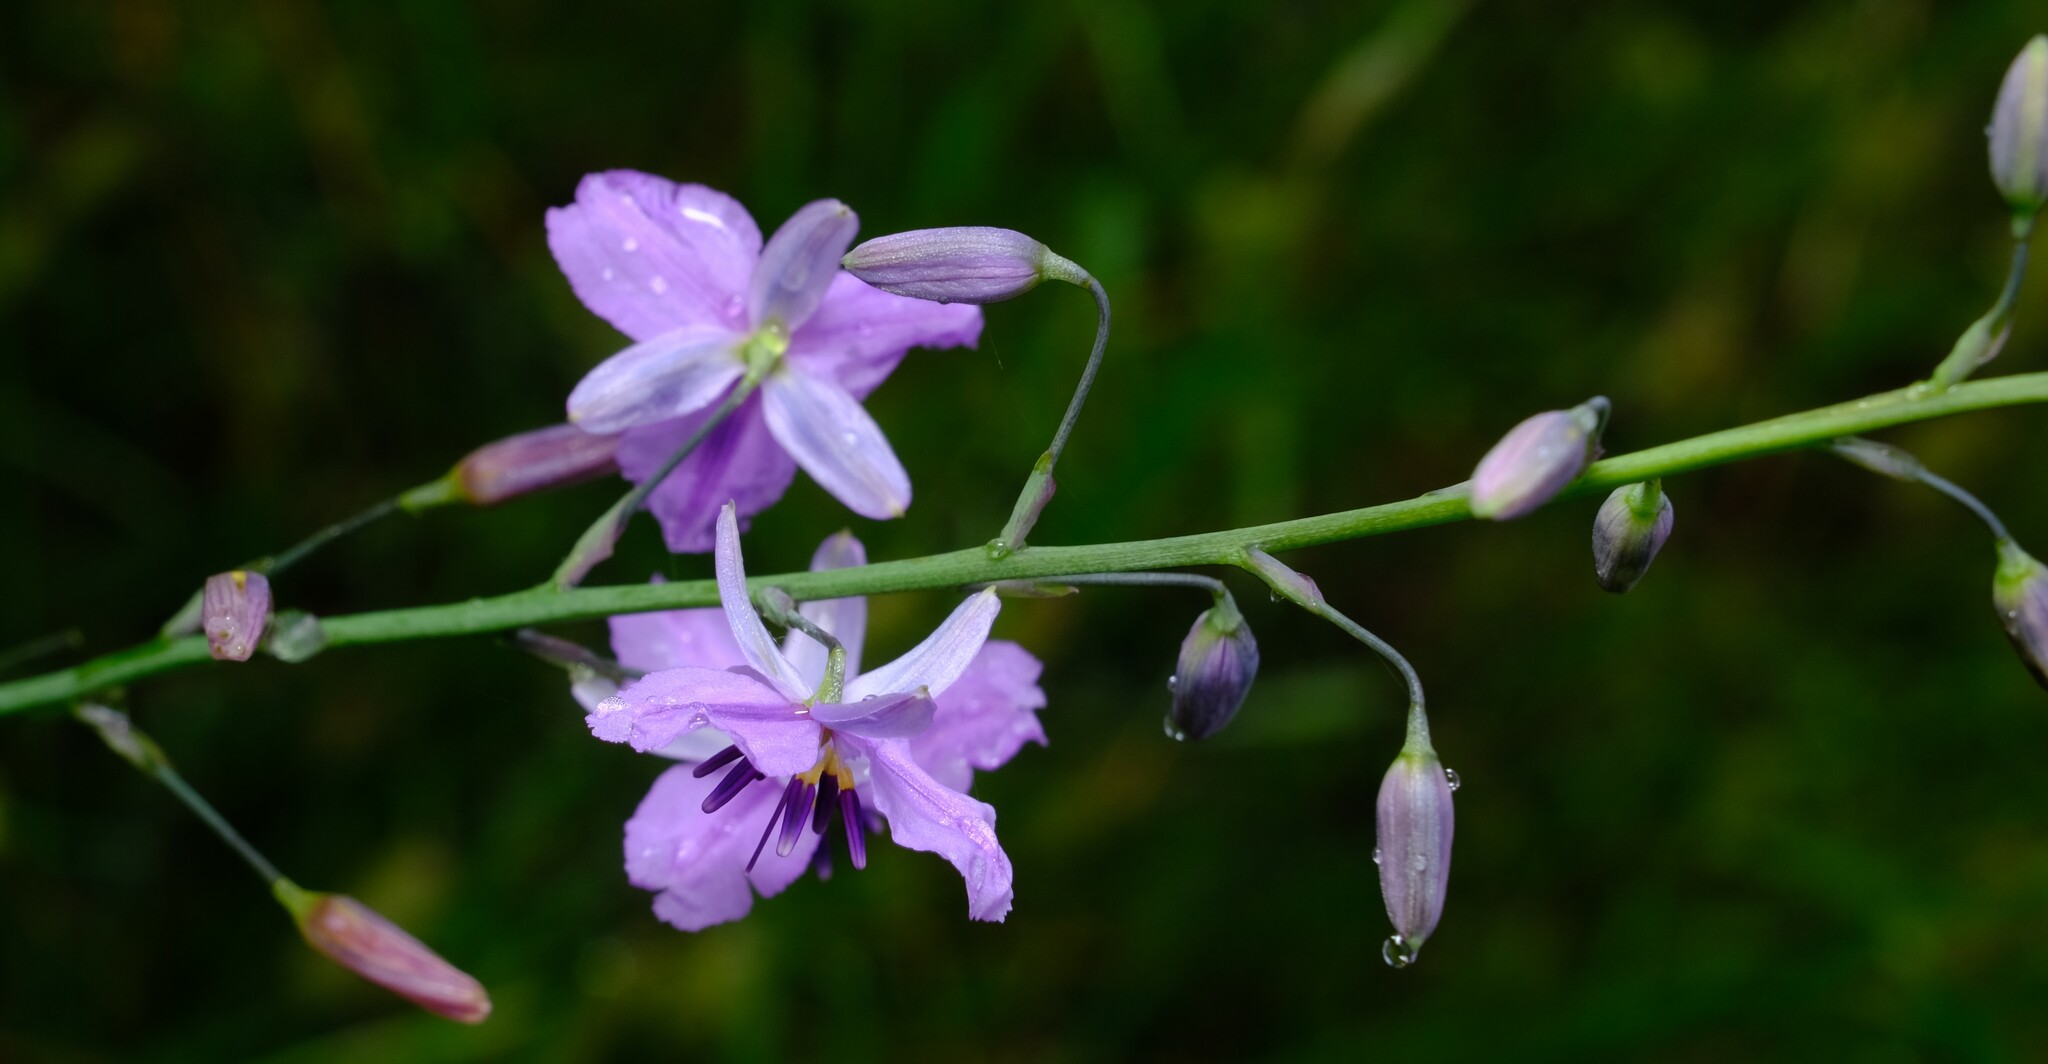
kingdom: Plantae
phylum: Tracheophyta
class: Liliopsida
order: Asparagales
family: Asparagaceae
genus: Arthropodium
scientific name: Arthropodium strictum
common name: Chocolate-lily
